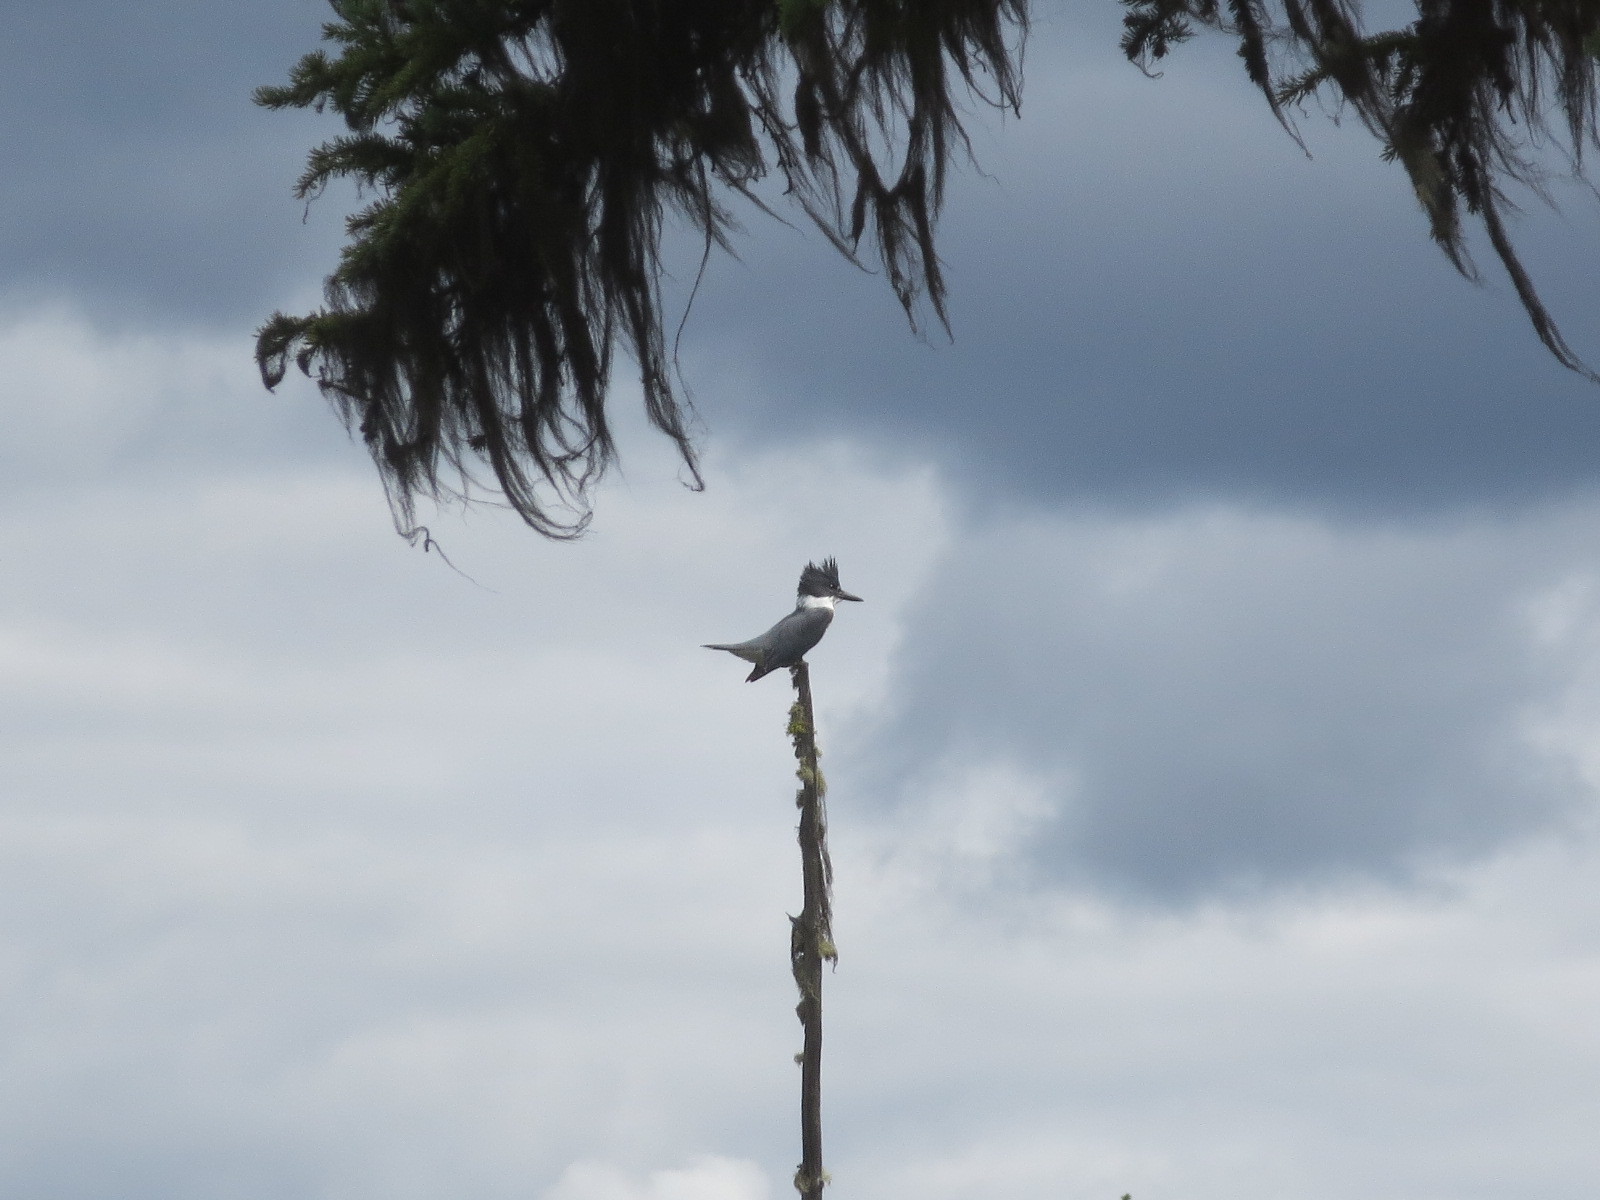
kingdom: Animalia
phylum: Chordata
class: Aves
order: Coraciiformes
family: Alcedinidae
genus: Megaceryle
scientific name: Megaceryle alcyon
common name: Belted kingfisher
